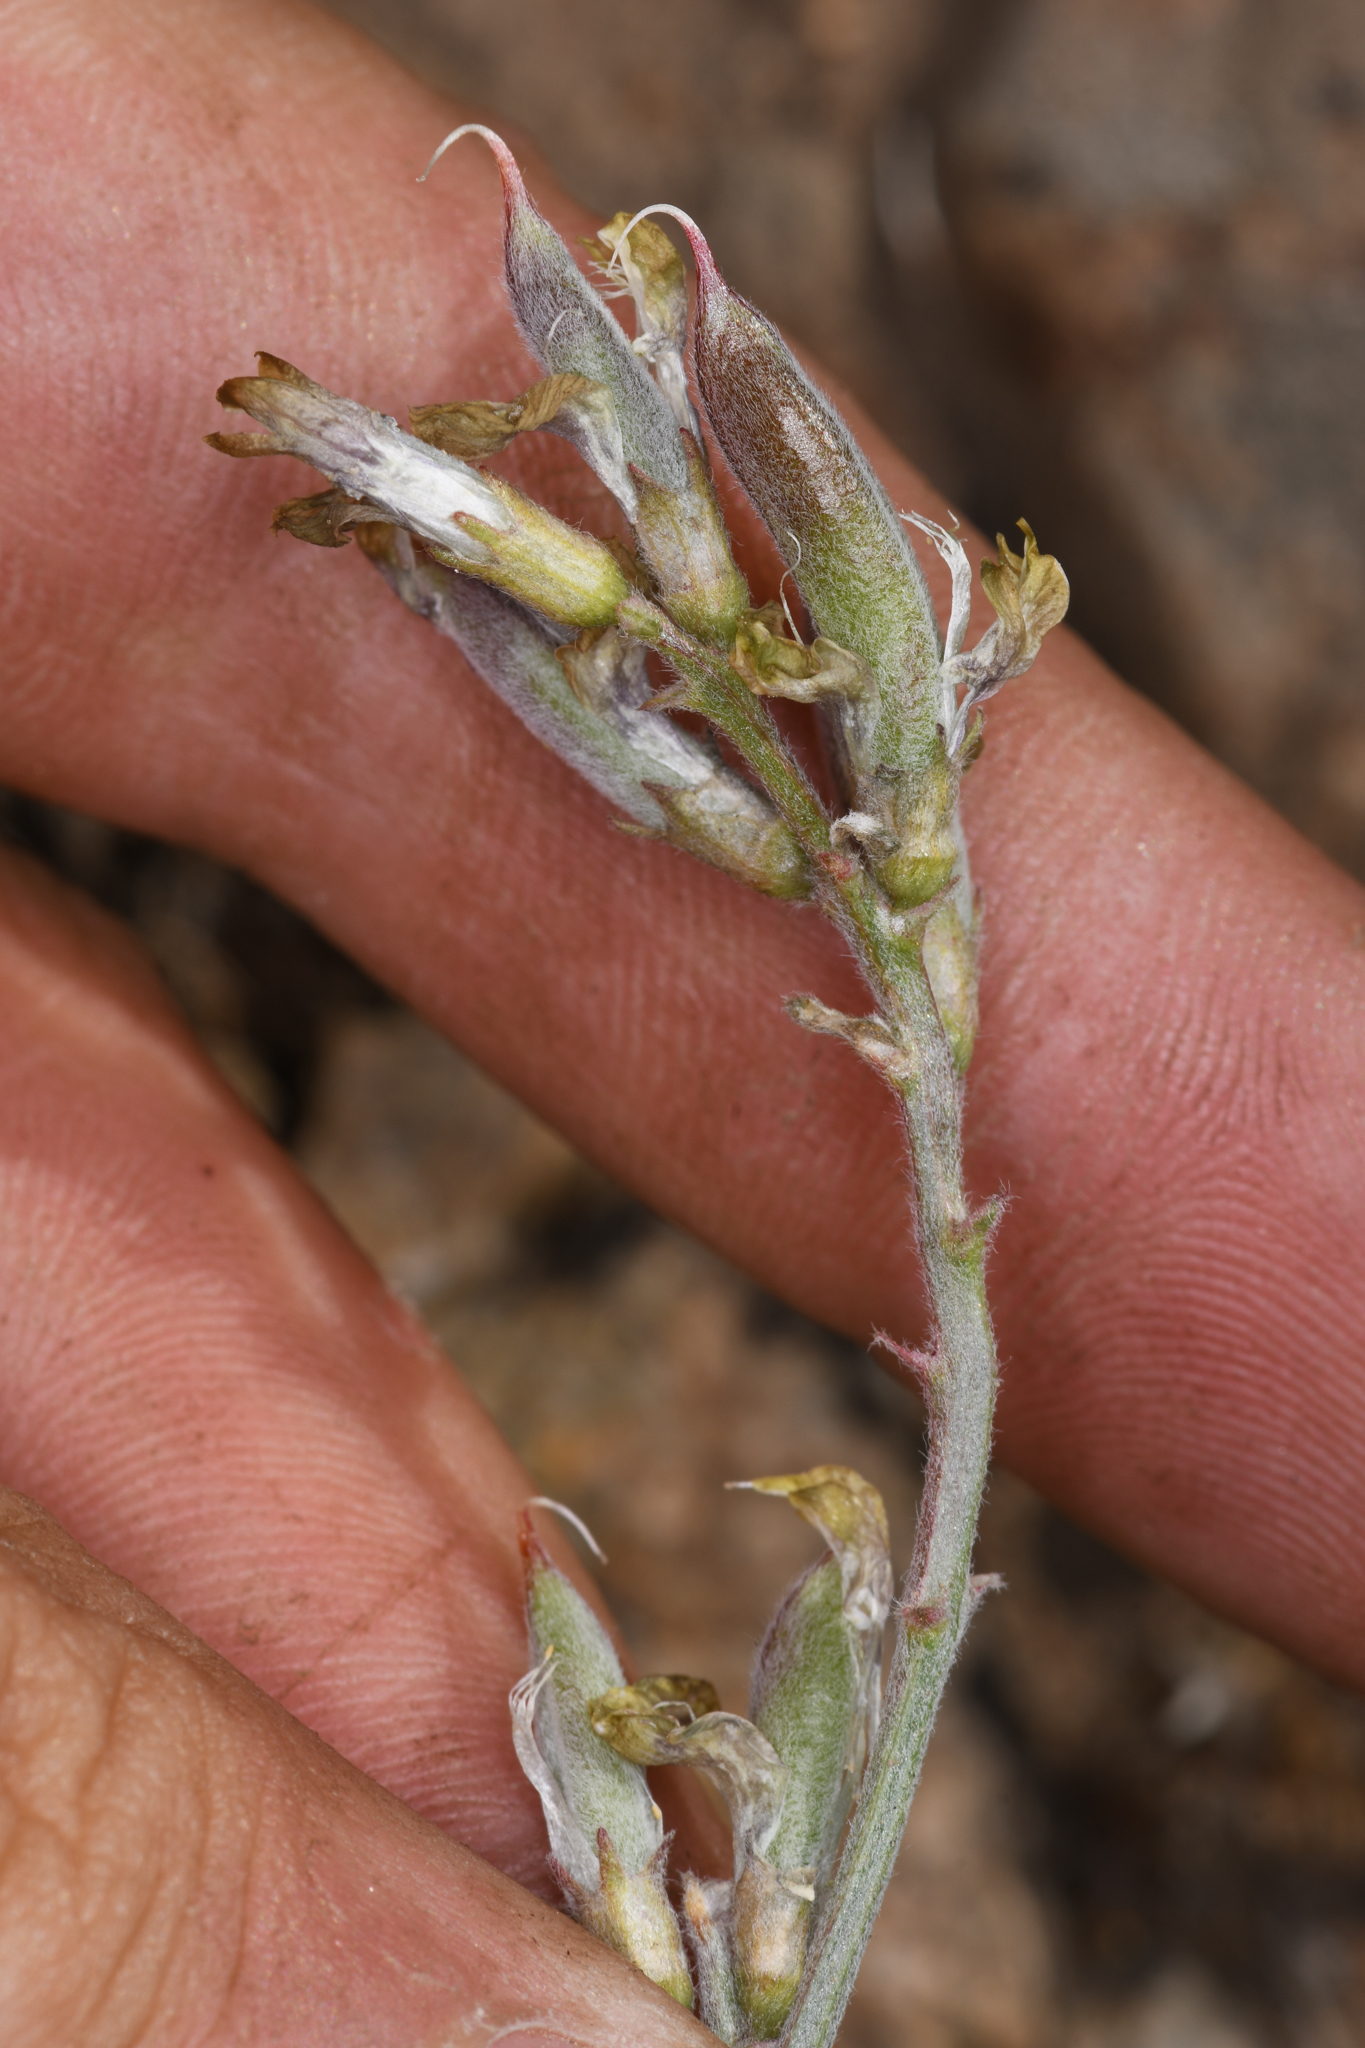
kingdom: Plantae
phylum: Tracheophyta
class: Magnoliopsida
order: Fabales
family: Fabaceae
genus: Astragalus
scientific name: Astragalus obscurus
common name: Arcane milk-vetch
